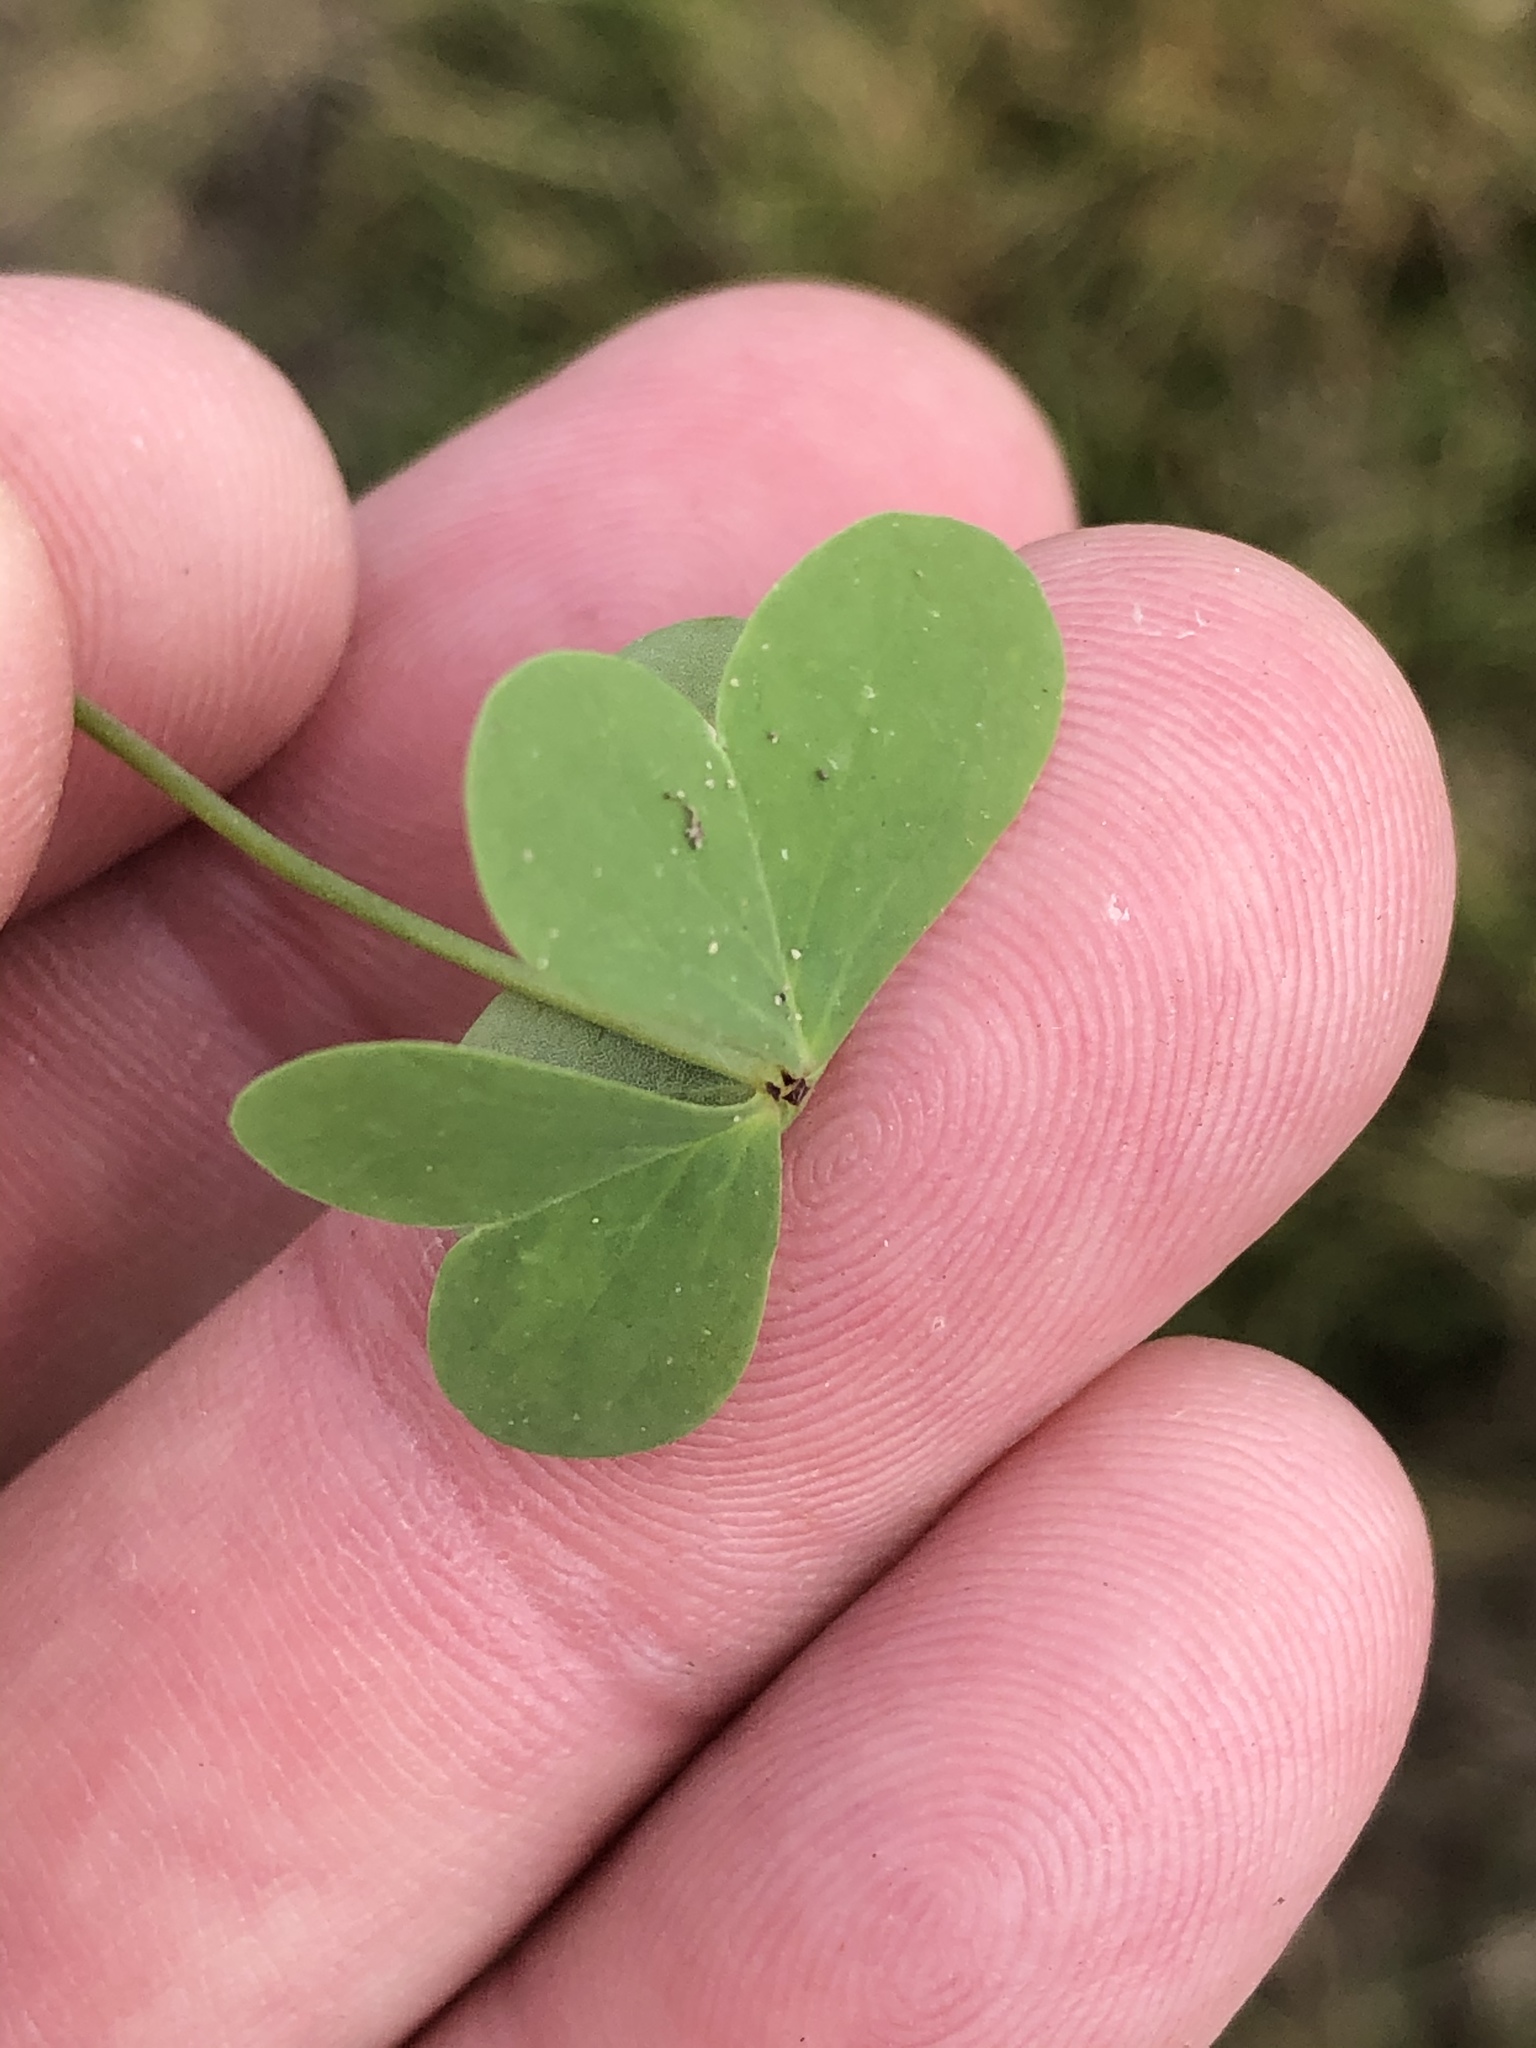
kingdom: Plantae
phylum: Tracheophyta
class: Magnoliopsida
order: Oxalidales
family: Oxalidaceae
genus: Oxalis
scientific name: Oxalis stellata
